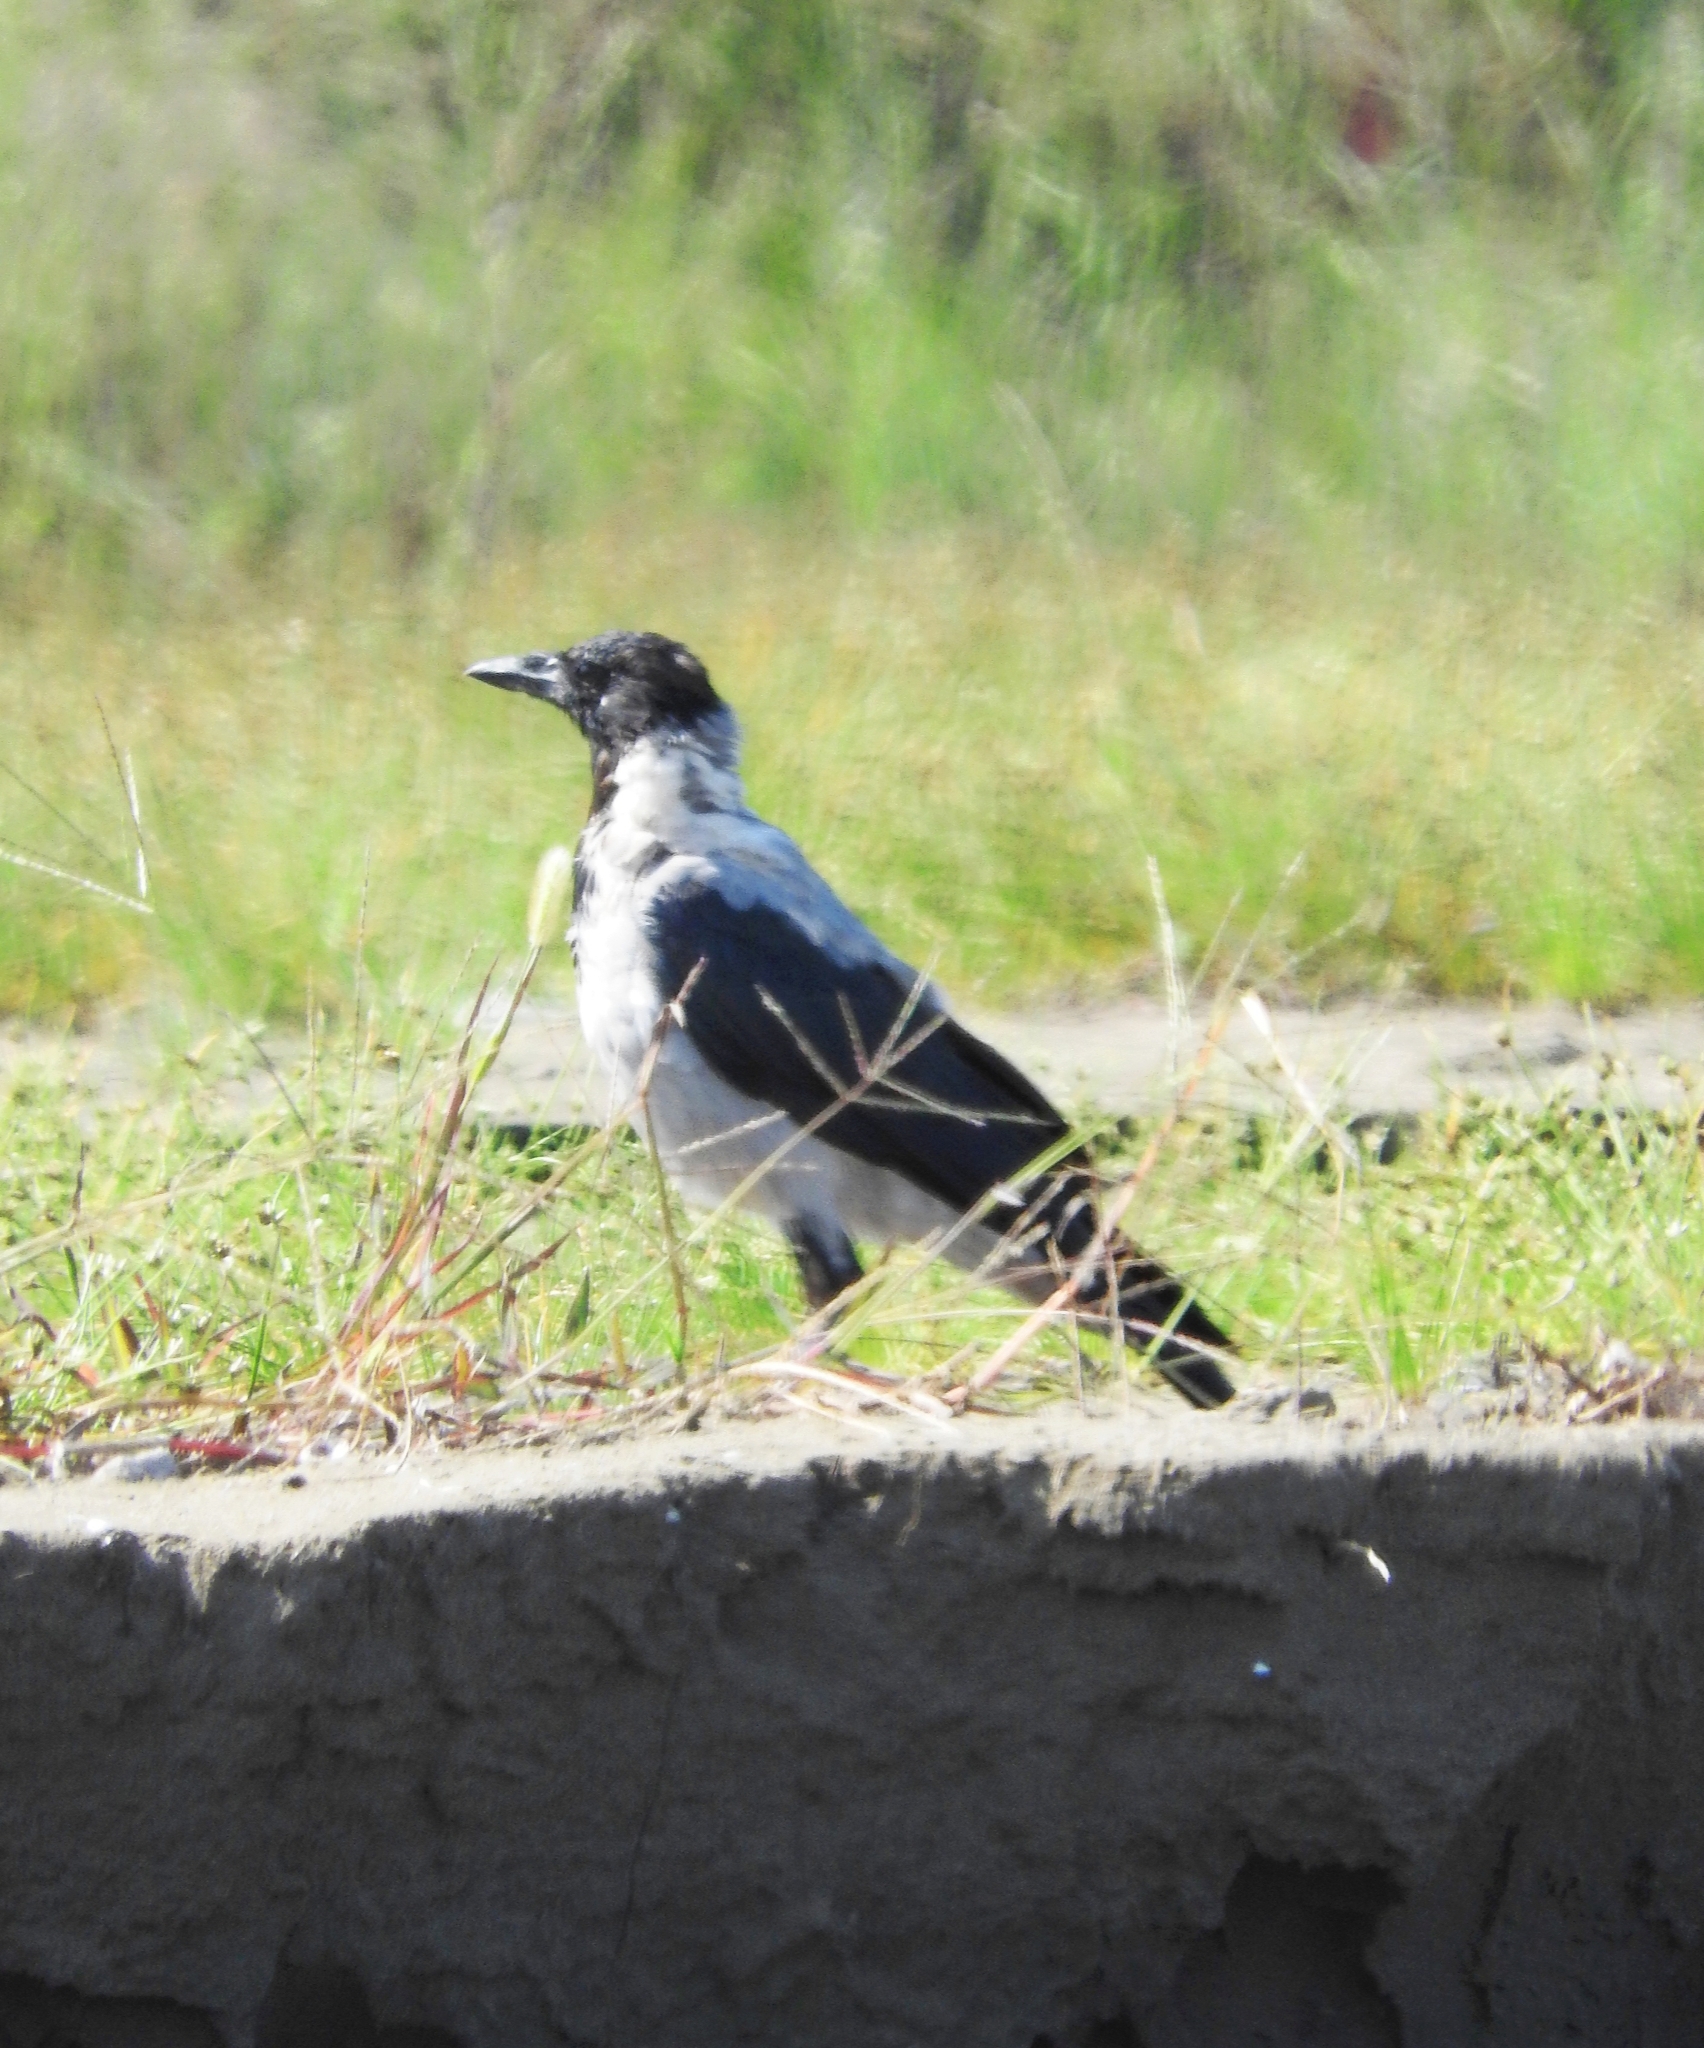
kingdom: Animalia
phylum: Chordata
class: Aves
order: Passeriformes
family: Corvidae
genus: Corvus
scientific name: Corvus cornix
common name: Hooded crow
